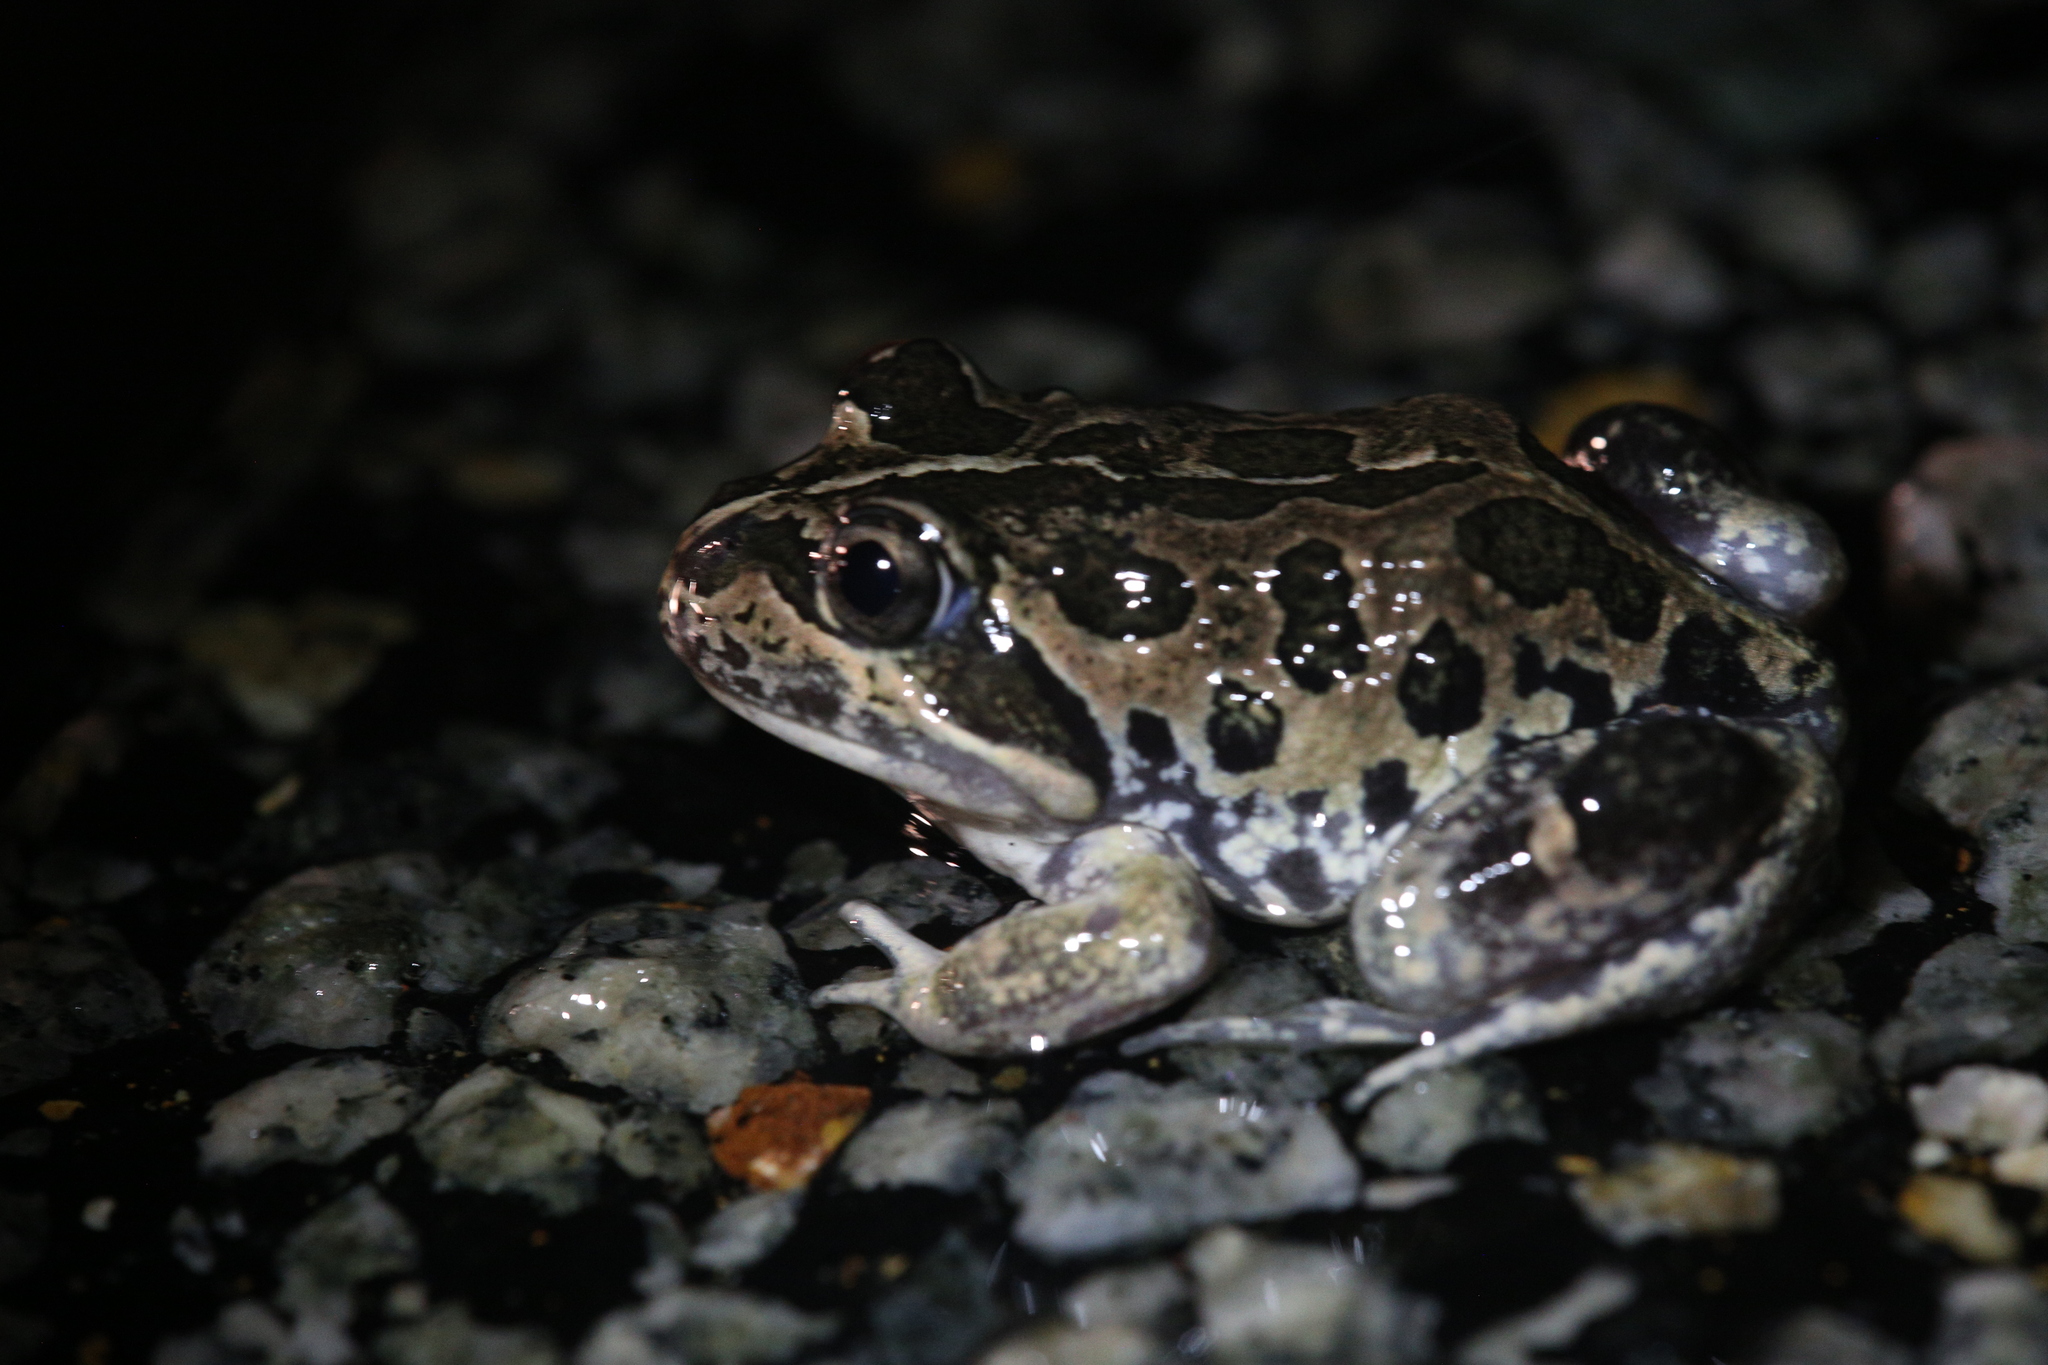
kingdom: Animalia
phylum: Chordata
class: Amphibia
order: Anura
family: Limnodynastidae
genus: Limnodynastes
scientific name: Limnodynastes dorsalis
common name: Banjo frog
